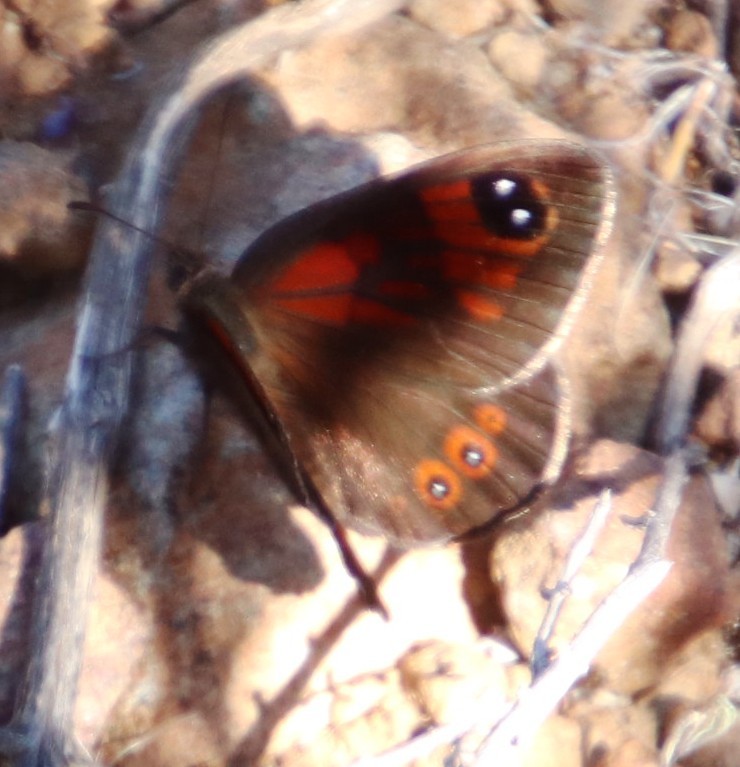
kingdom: Animalia
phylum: Arthropoda
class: Insecta
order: Lepidoptera
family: Nymphalidae
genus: Tarsocera
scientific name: Tarsocera cassus
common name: Spring widow
